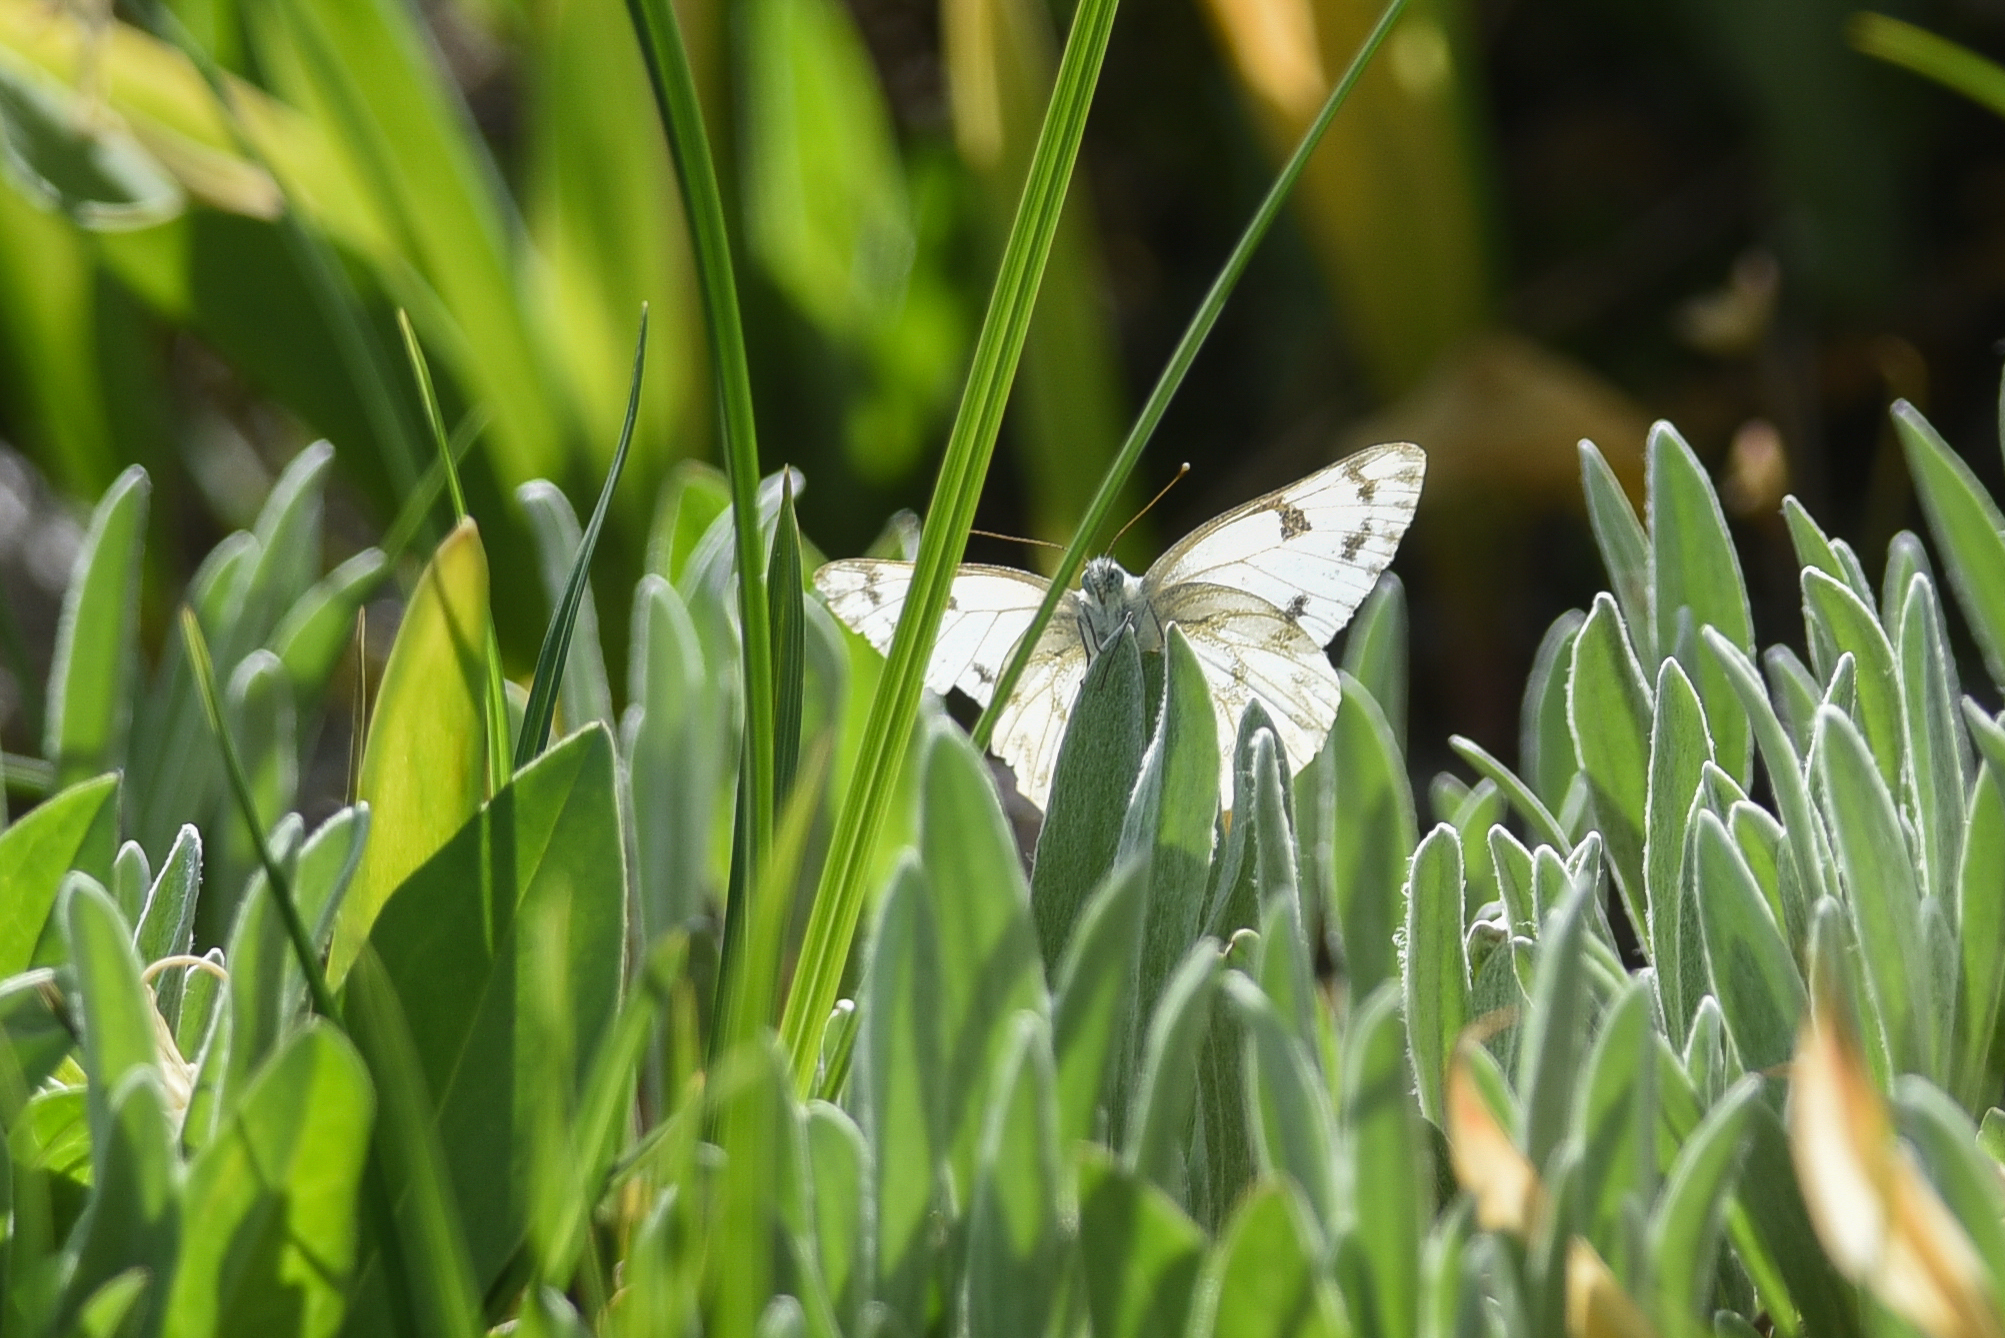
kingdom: Animalia
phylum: Arthropoda
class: Insecta
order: Lepidoptera
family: Pieridae
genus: Pontia
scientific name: Pontia occidentalis
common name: Western white
